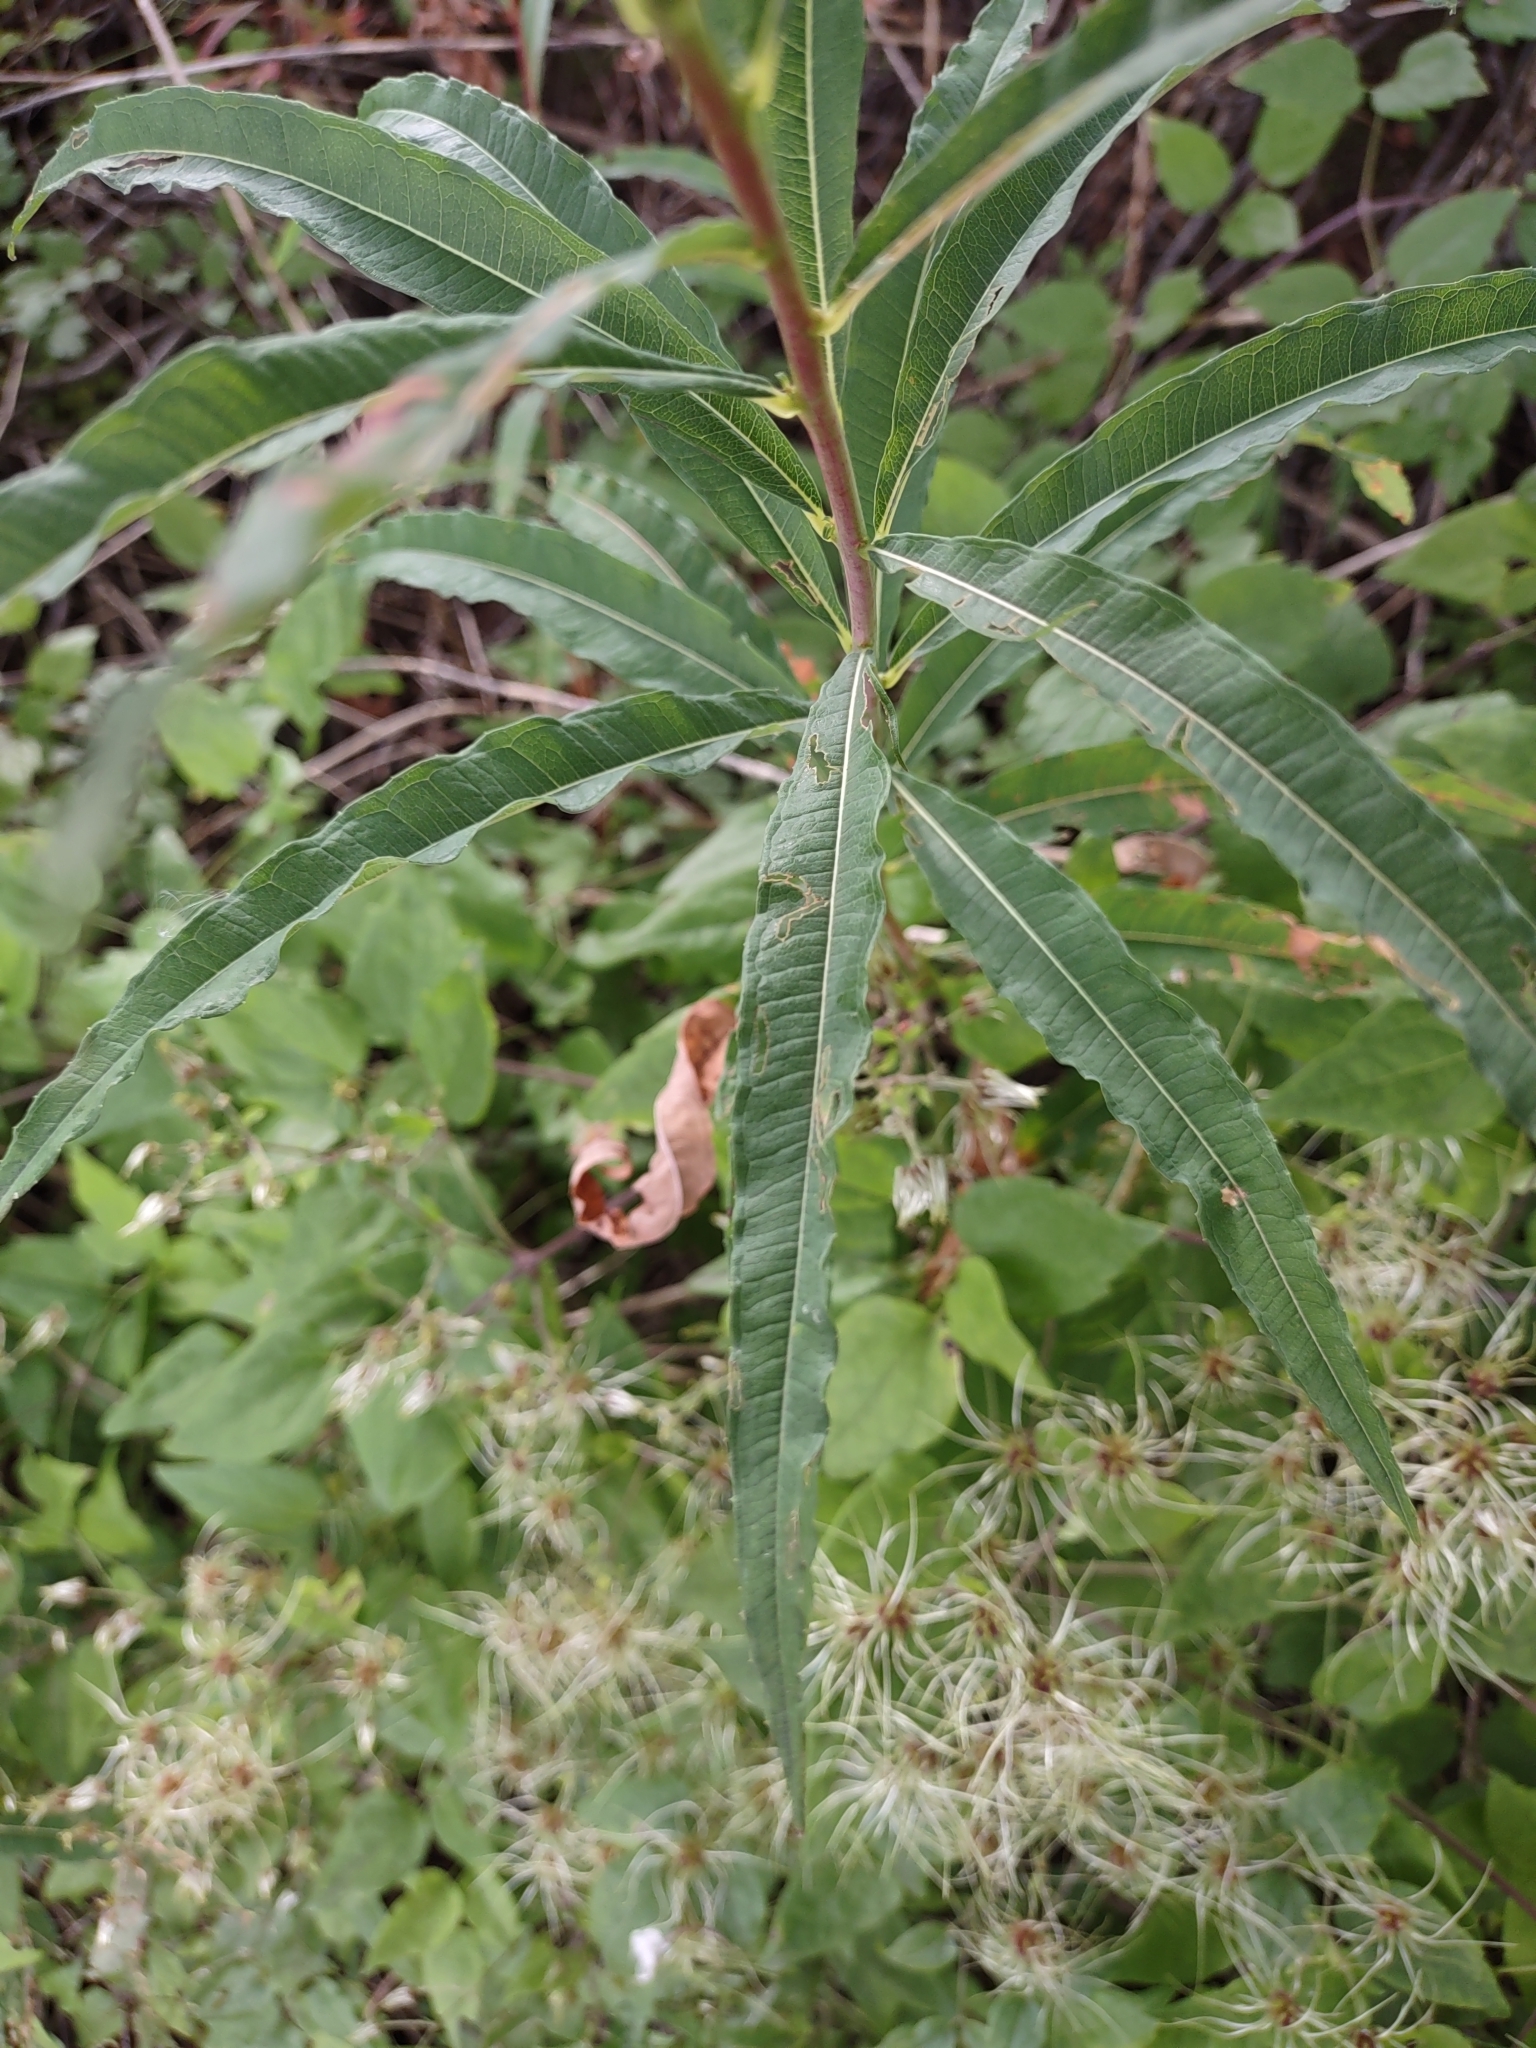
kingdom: Plantae
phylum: Tracheophyta
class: Magnoliopsida
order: Myrtales
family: Onagraceae
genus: Chamaenerion
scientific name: Chamaenerion angustifolium
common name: Fireweed
